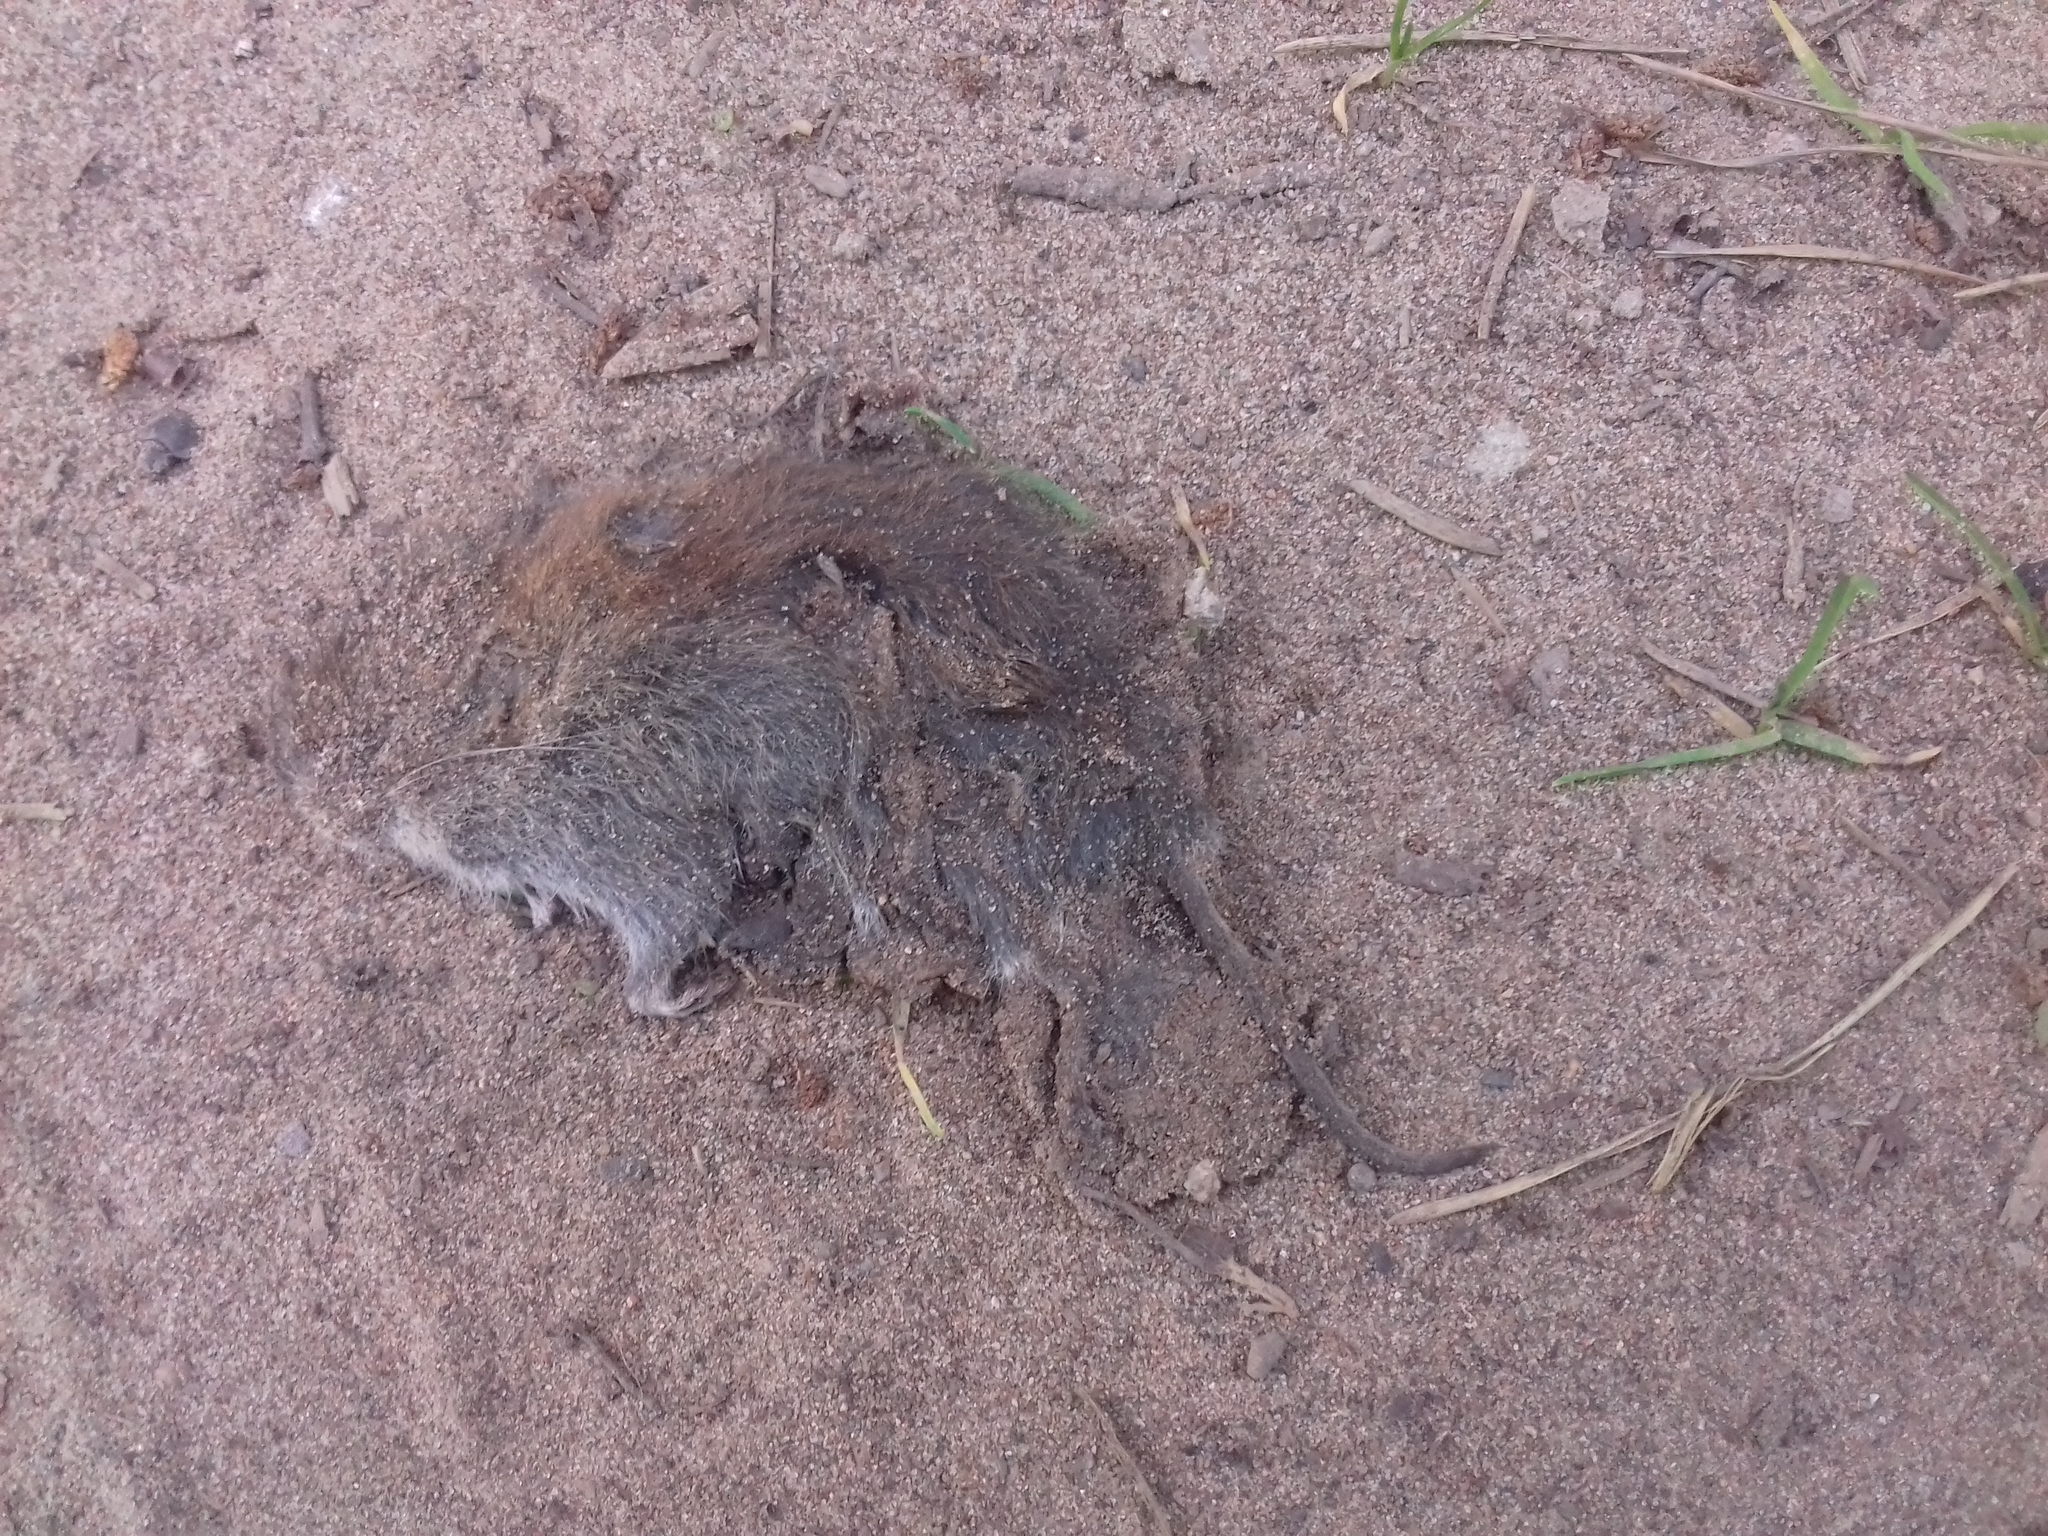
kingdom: Animalia
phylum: Chordata
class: Mammalia
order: Rodentia
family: Cricetidae
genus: Myodes
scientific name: Myodes glareolus
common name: Bank vole
